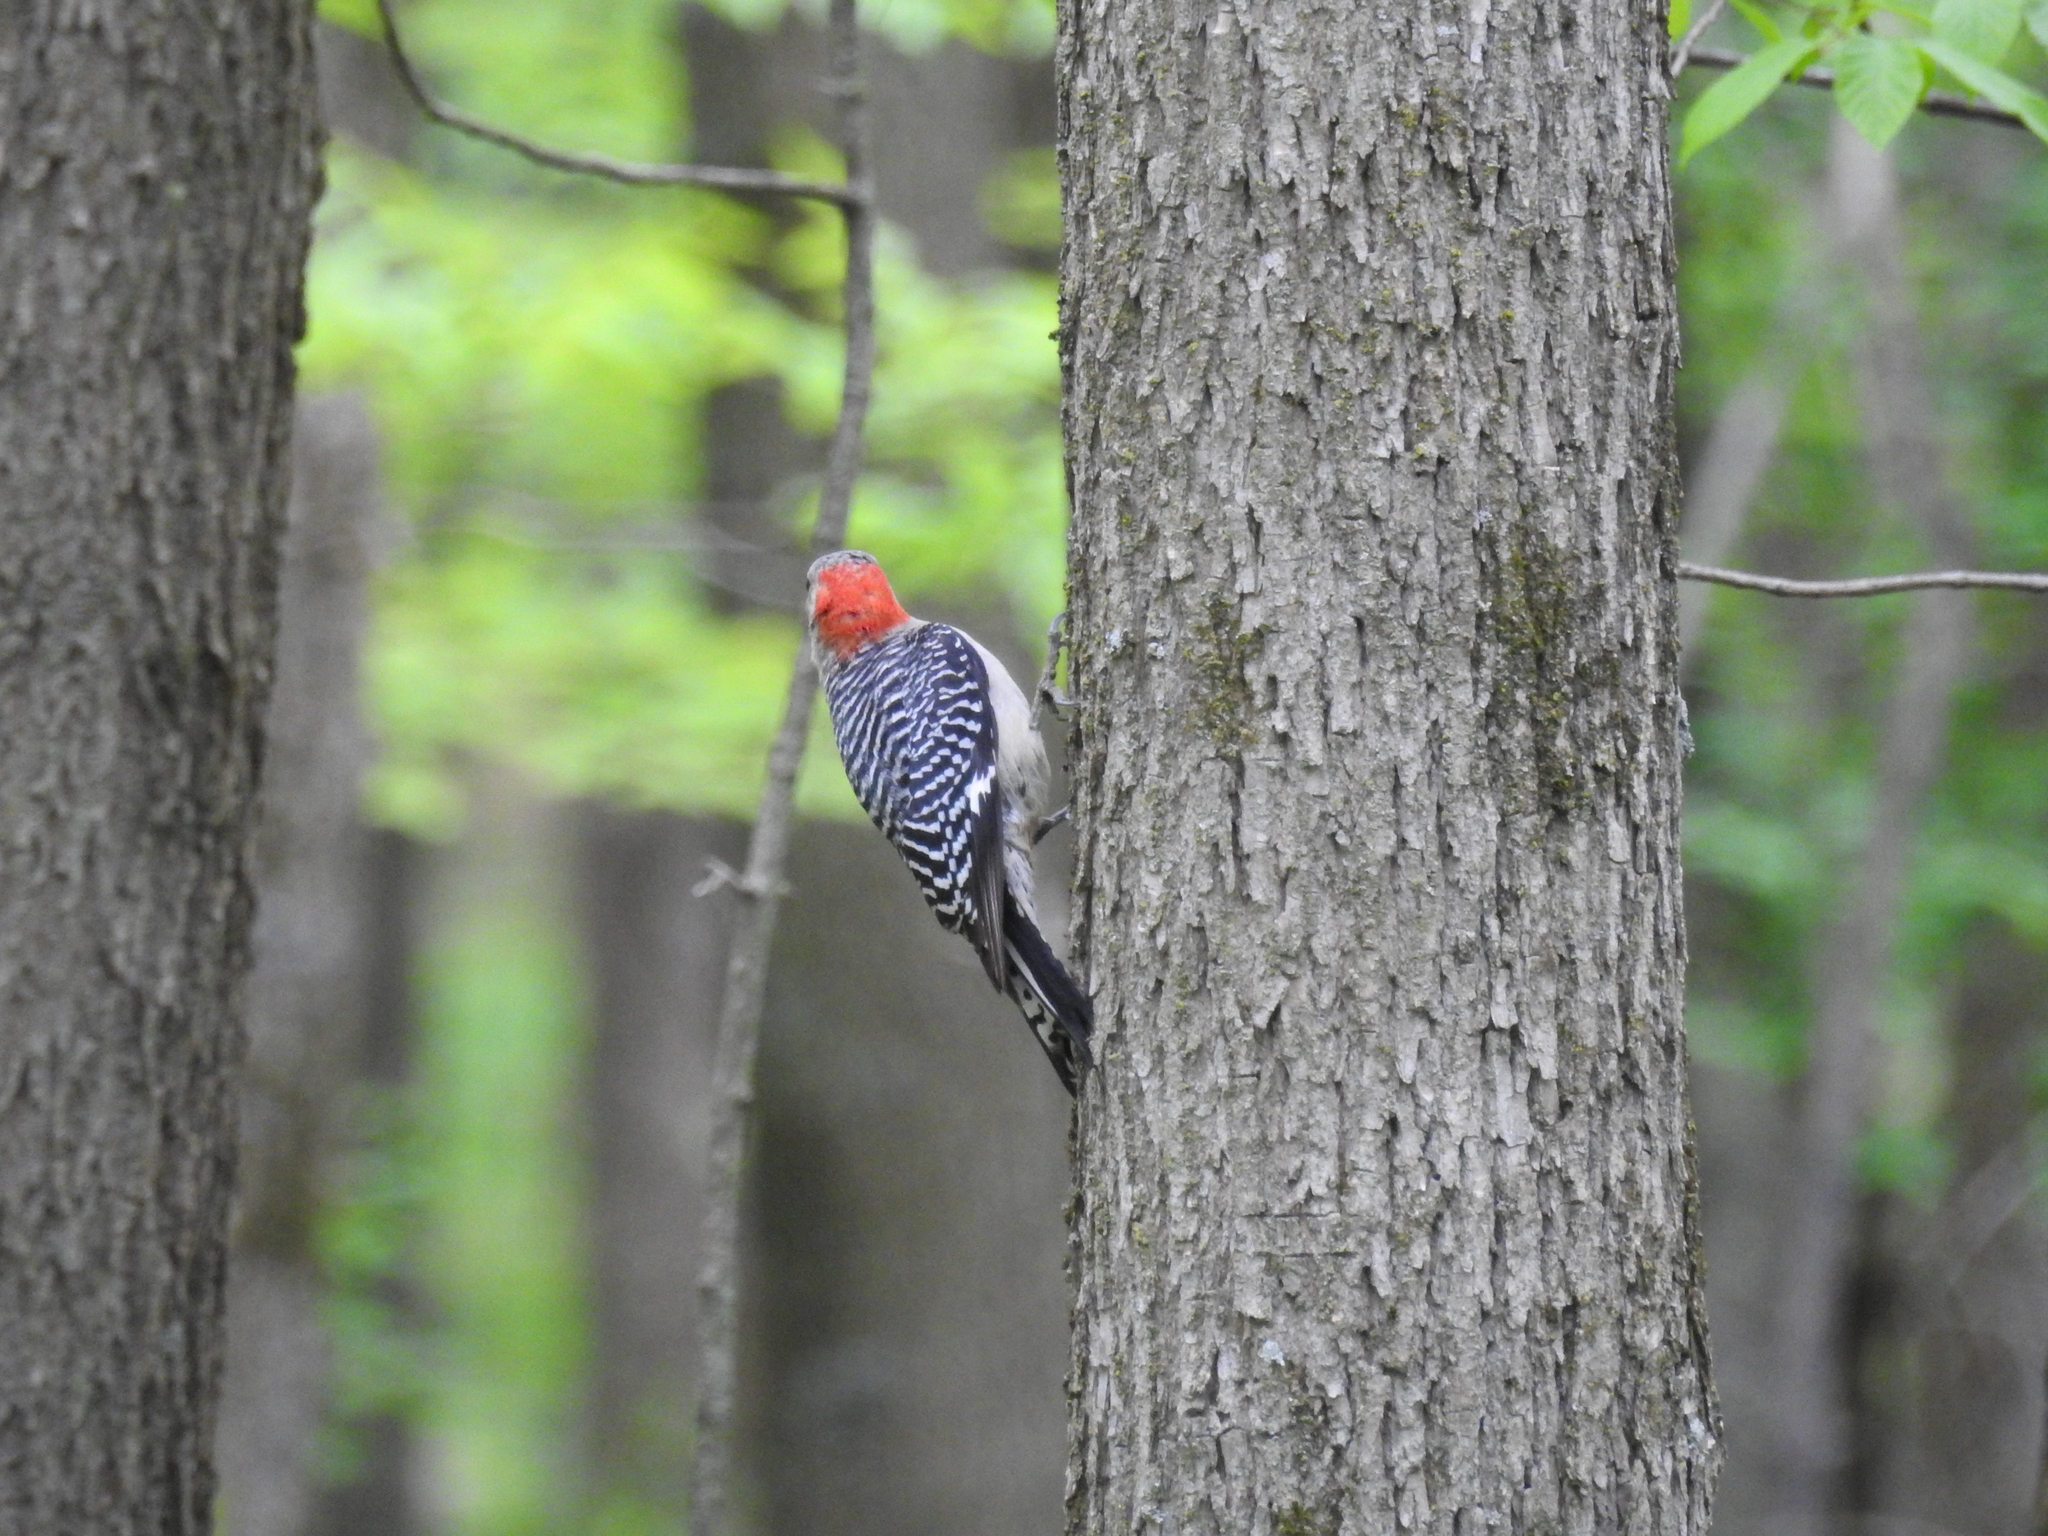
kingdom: Animalia
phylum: Chordata
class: Aves
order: Piciformes
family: Picidae
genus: Melanerpes
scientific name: Melanerpes carolinus
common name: Red-bellied woodpecker
